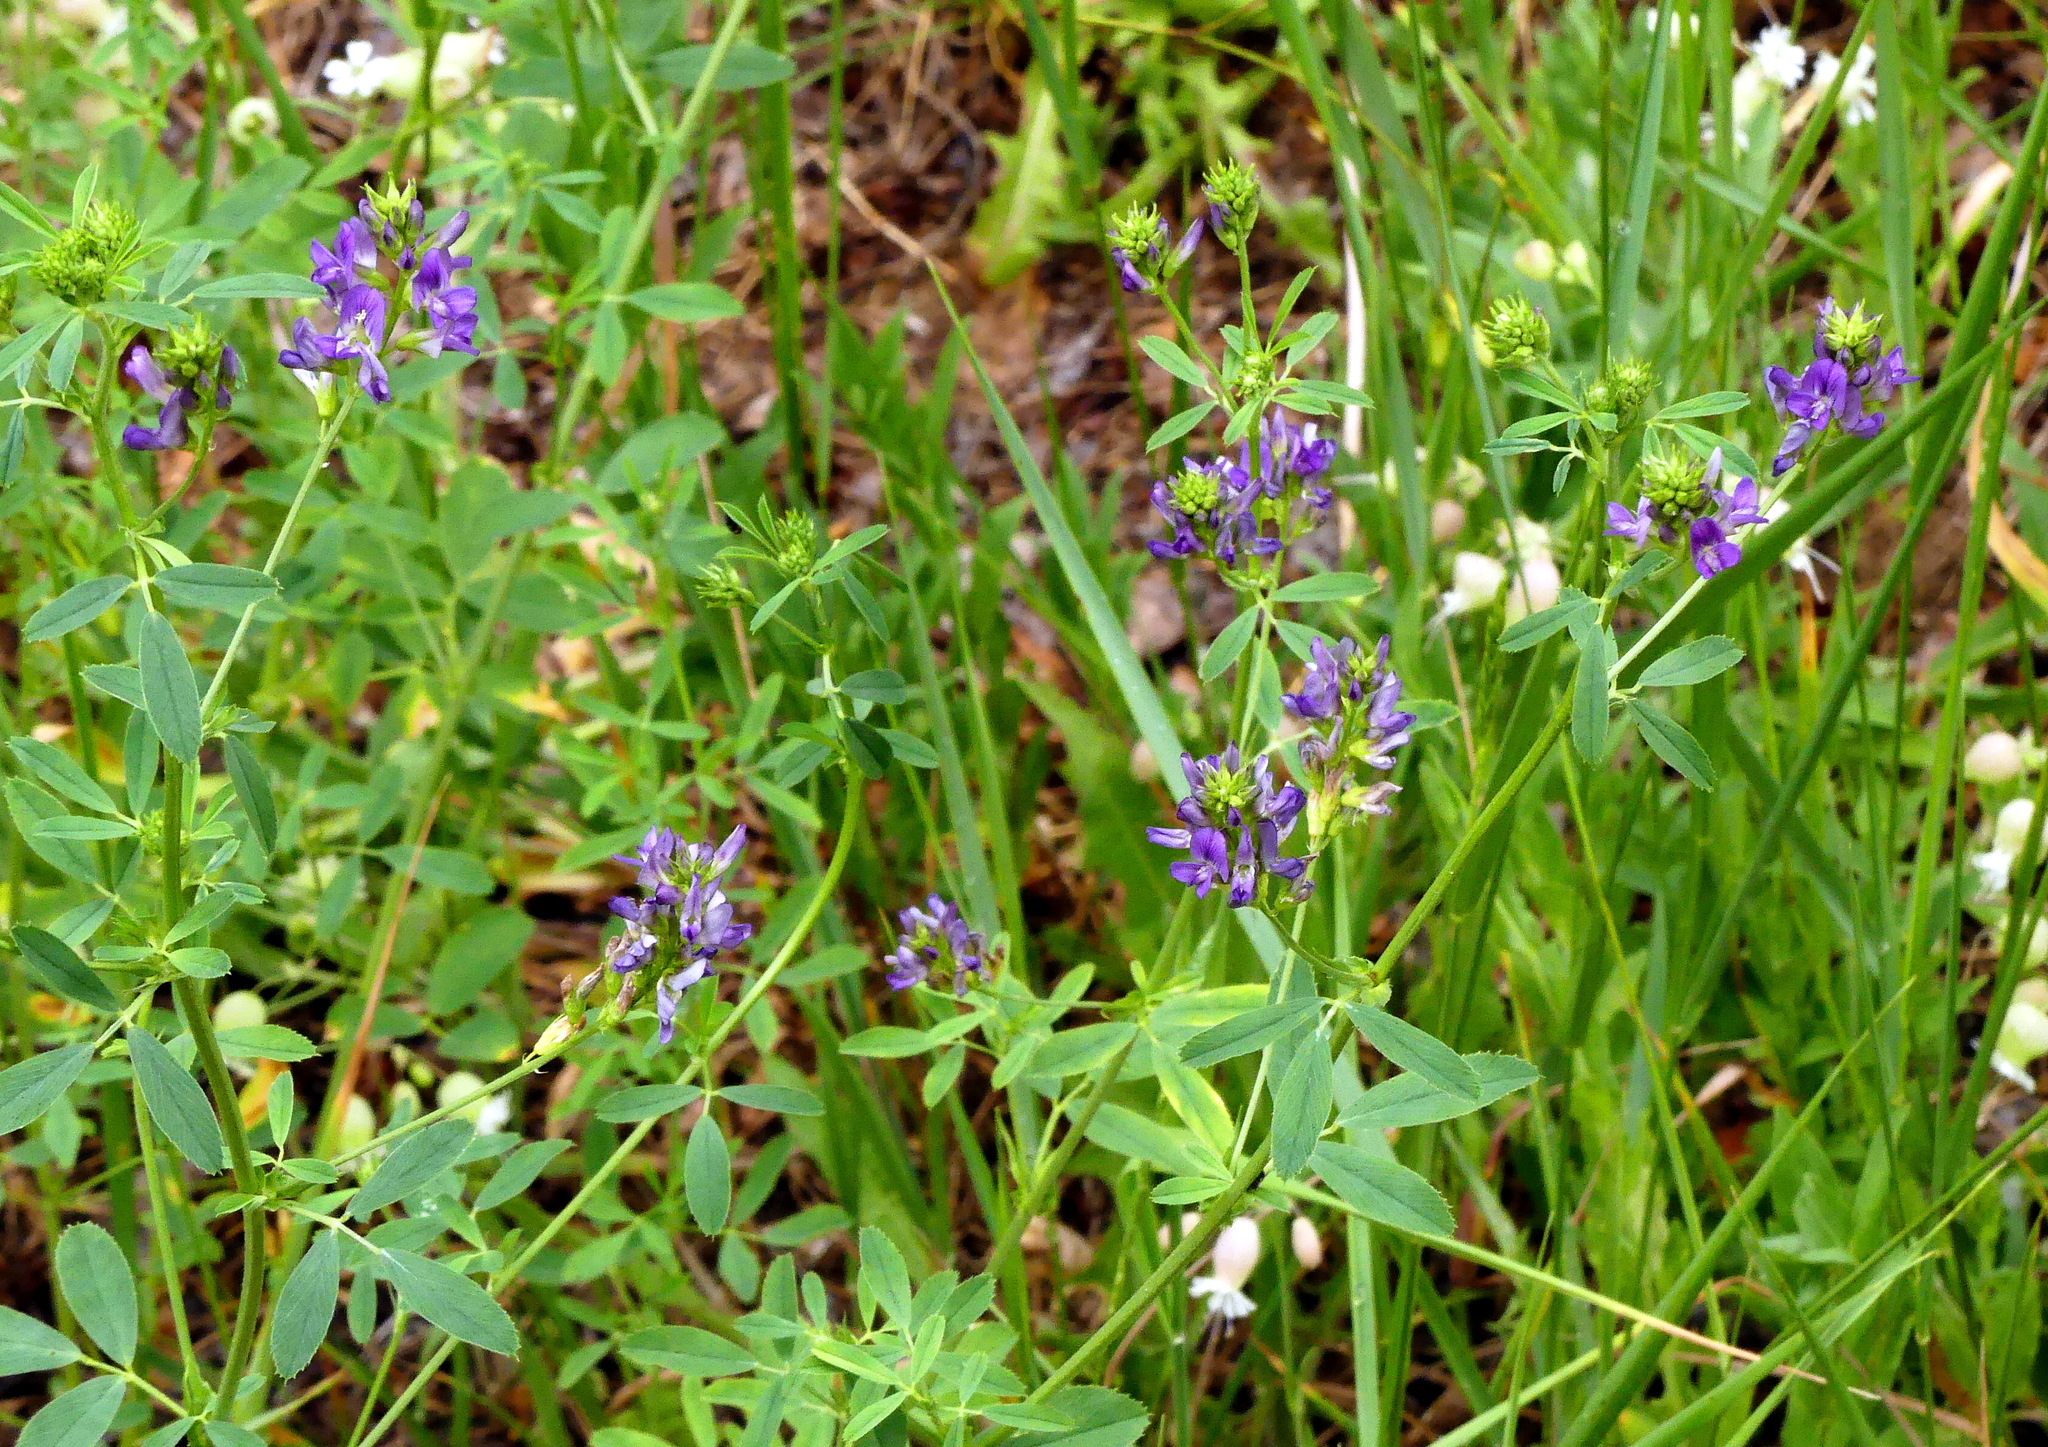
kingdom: Plantae
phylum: Tracheophyta
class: Magnoliopsida
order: Fabales
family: Fabaceae
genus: Medicago
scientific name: Medicago sativa
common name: Alfalfa
